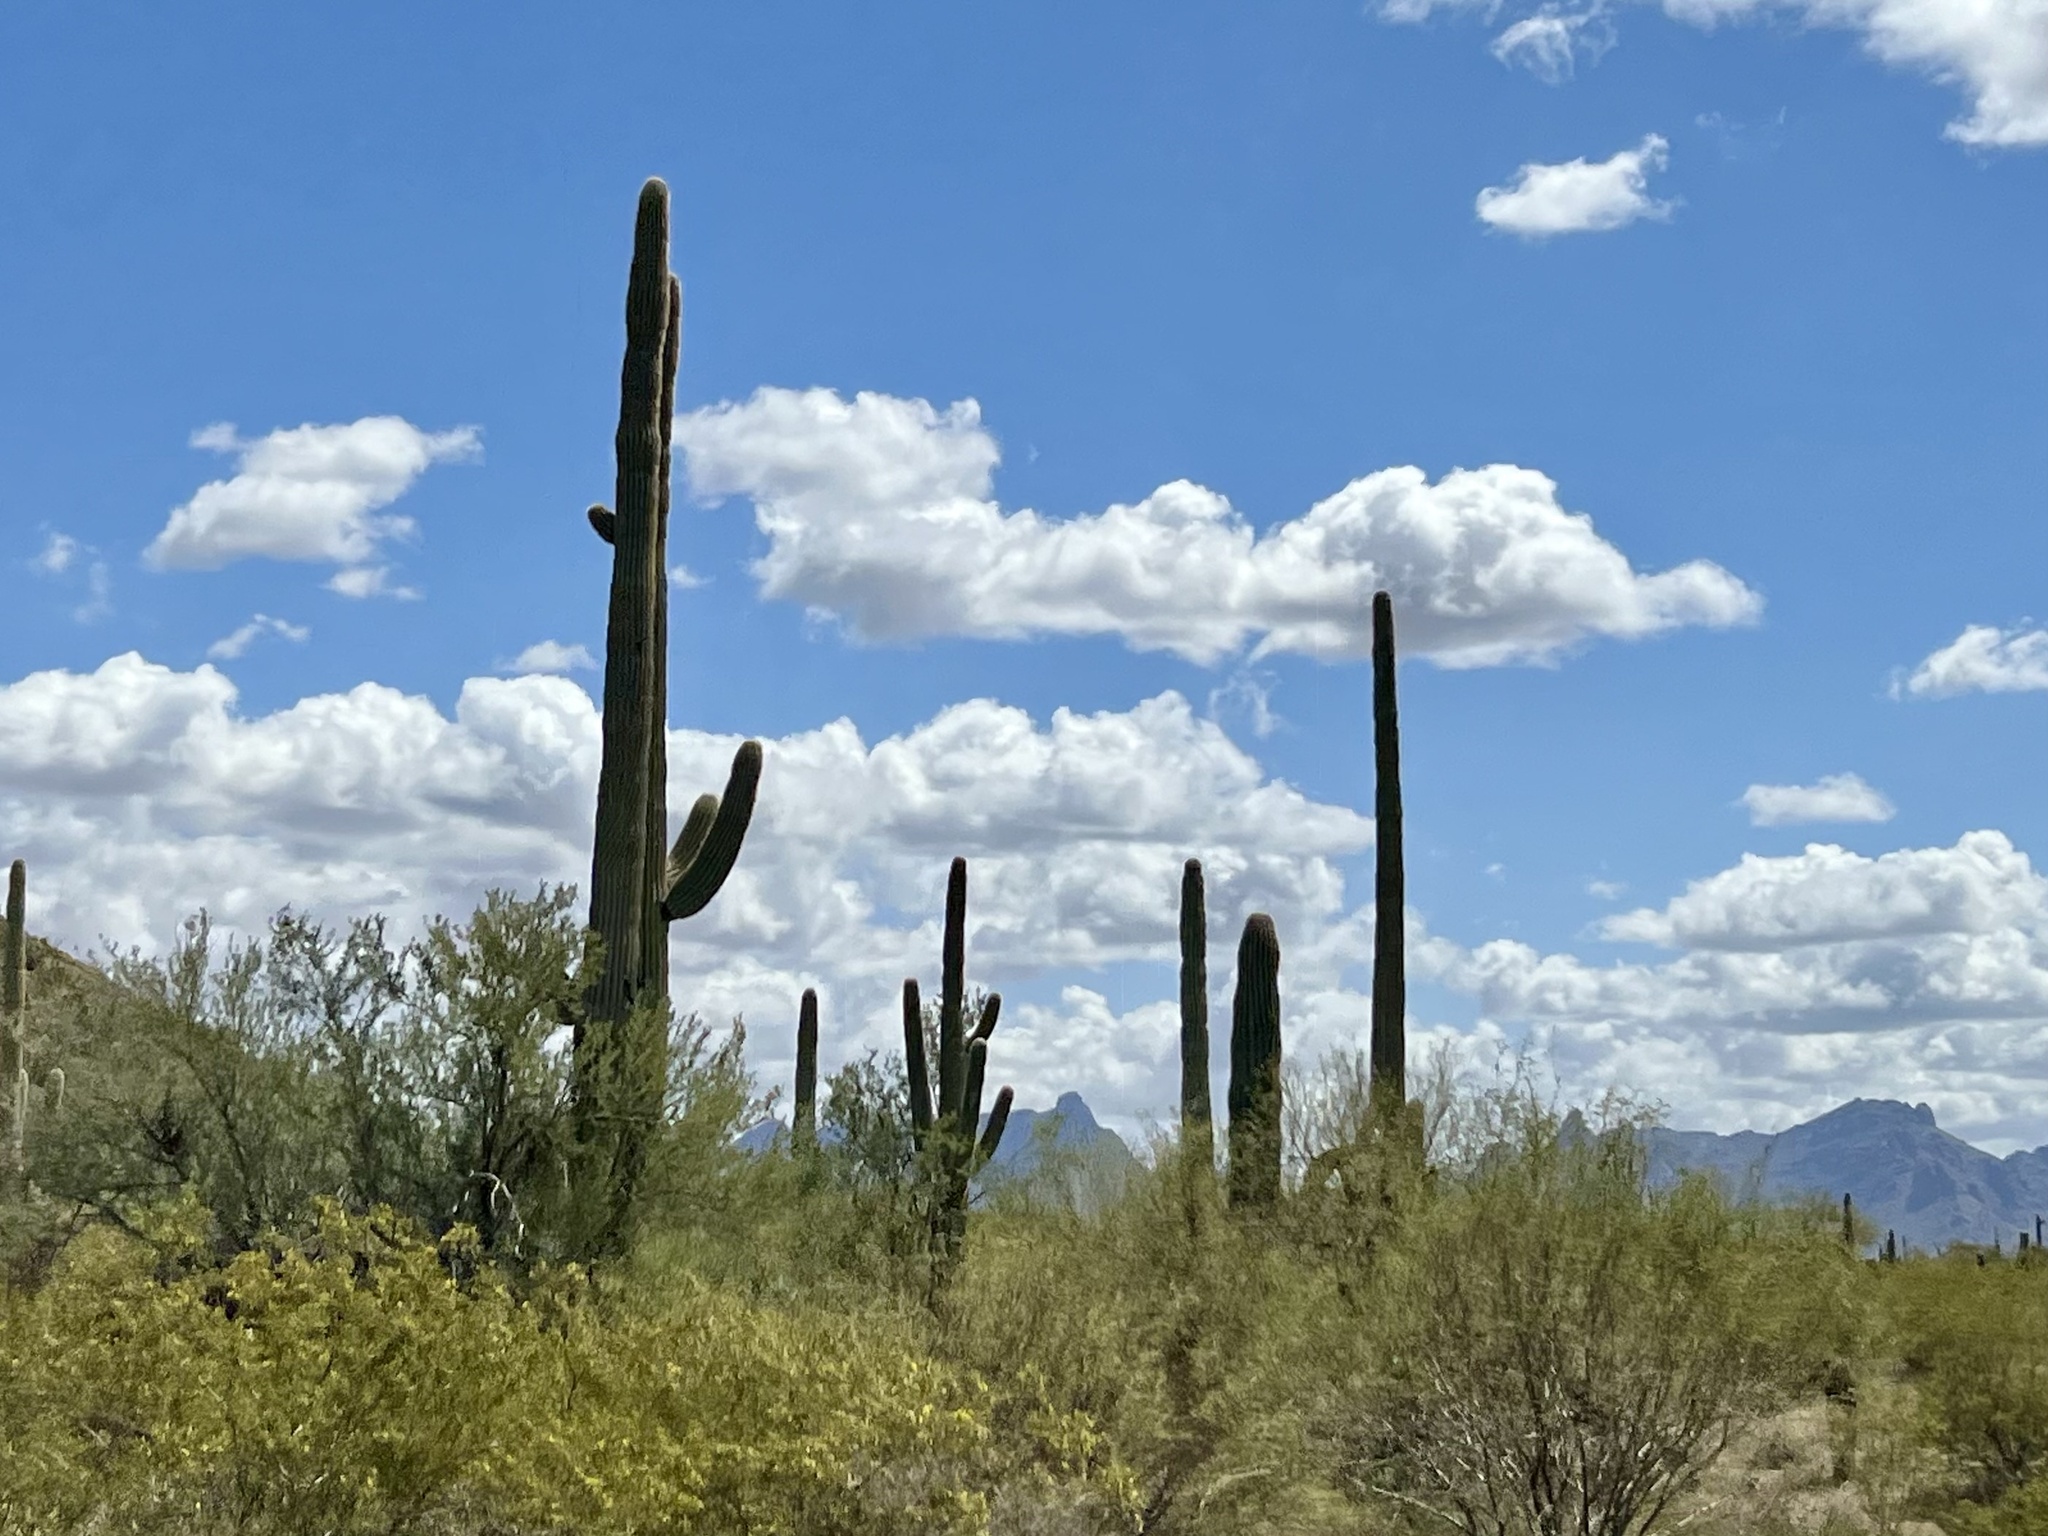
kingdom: Plantae
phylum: Tracheophyta
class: Magnoliopsida
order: Caryophyllales
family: Cactaceae
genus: Carnegiea
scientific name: Carnegiea gigantea
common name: Saguaro
